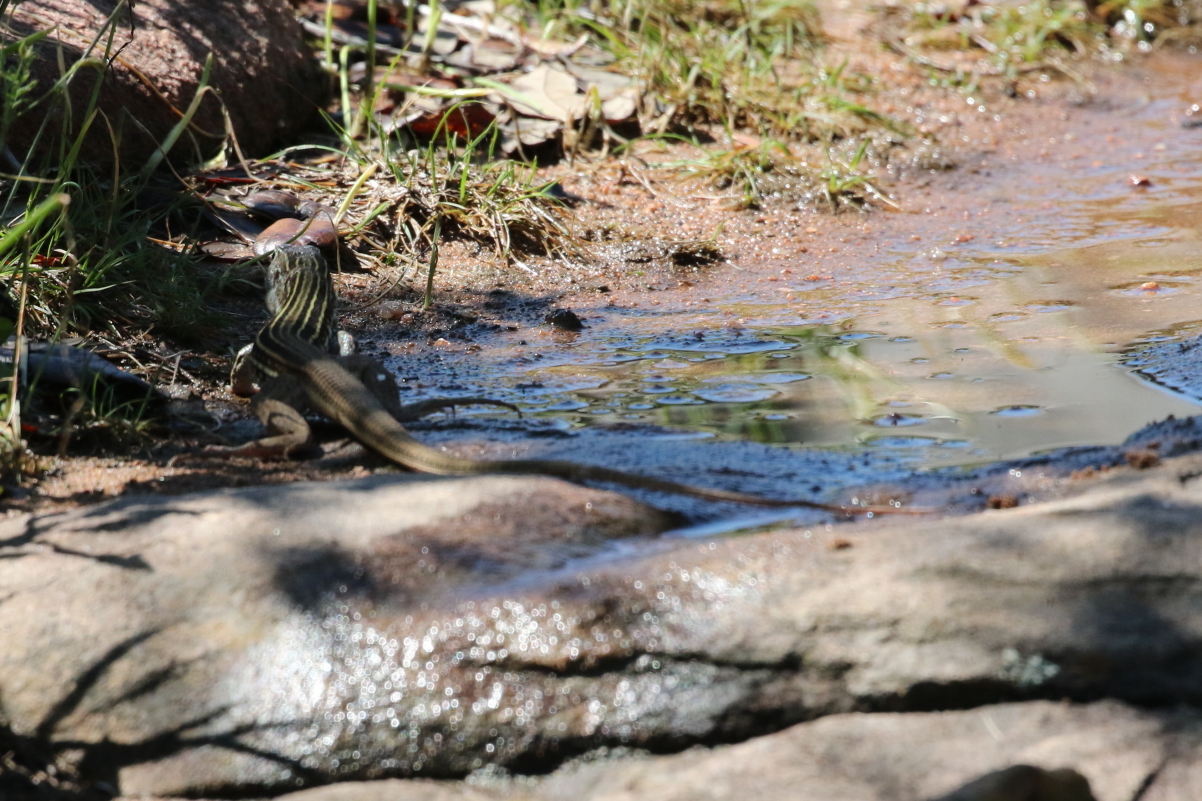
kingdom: Animalia
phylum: Chordata
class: Squamata
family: Teiidae
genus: Aspidoscelis
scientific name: Aspidoscelis gularis
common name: Eastern spotted whiptail
